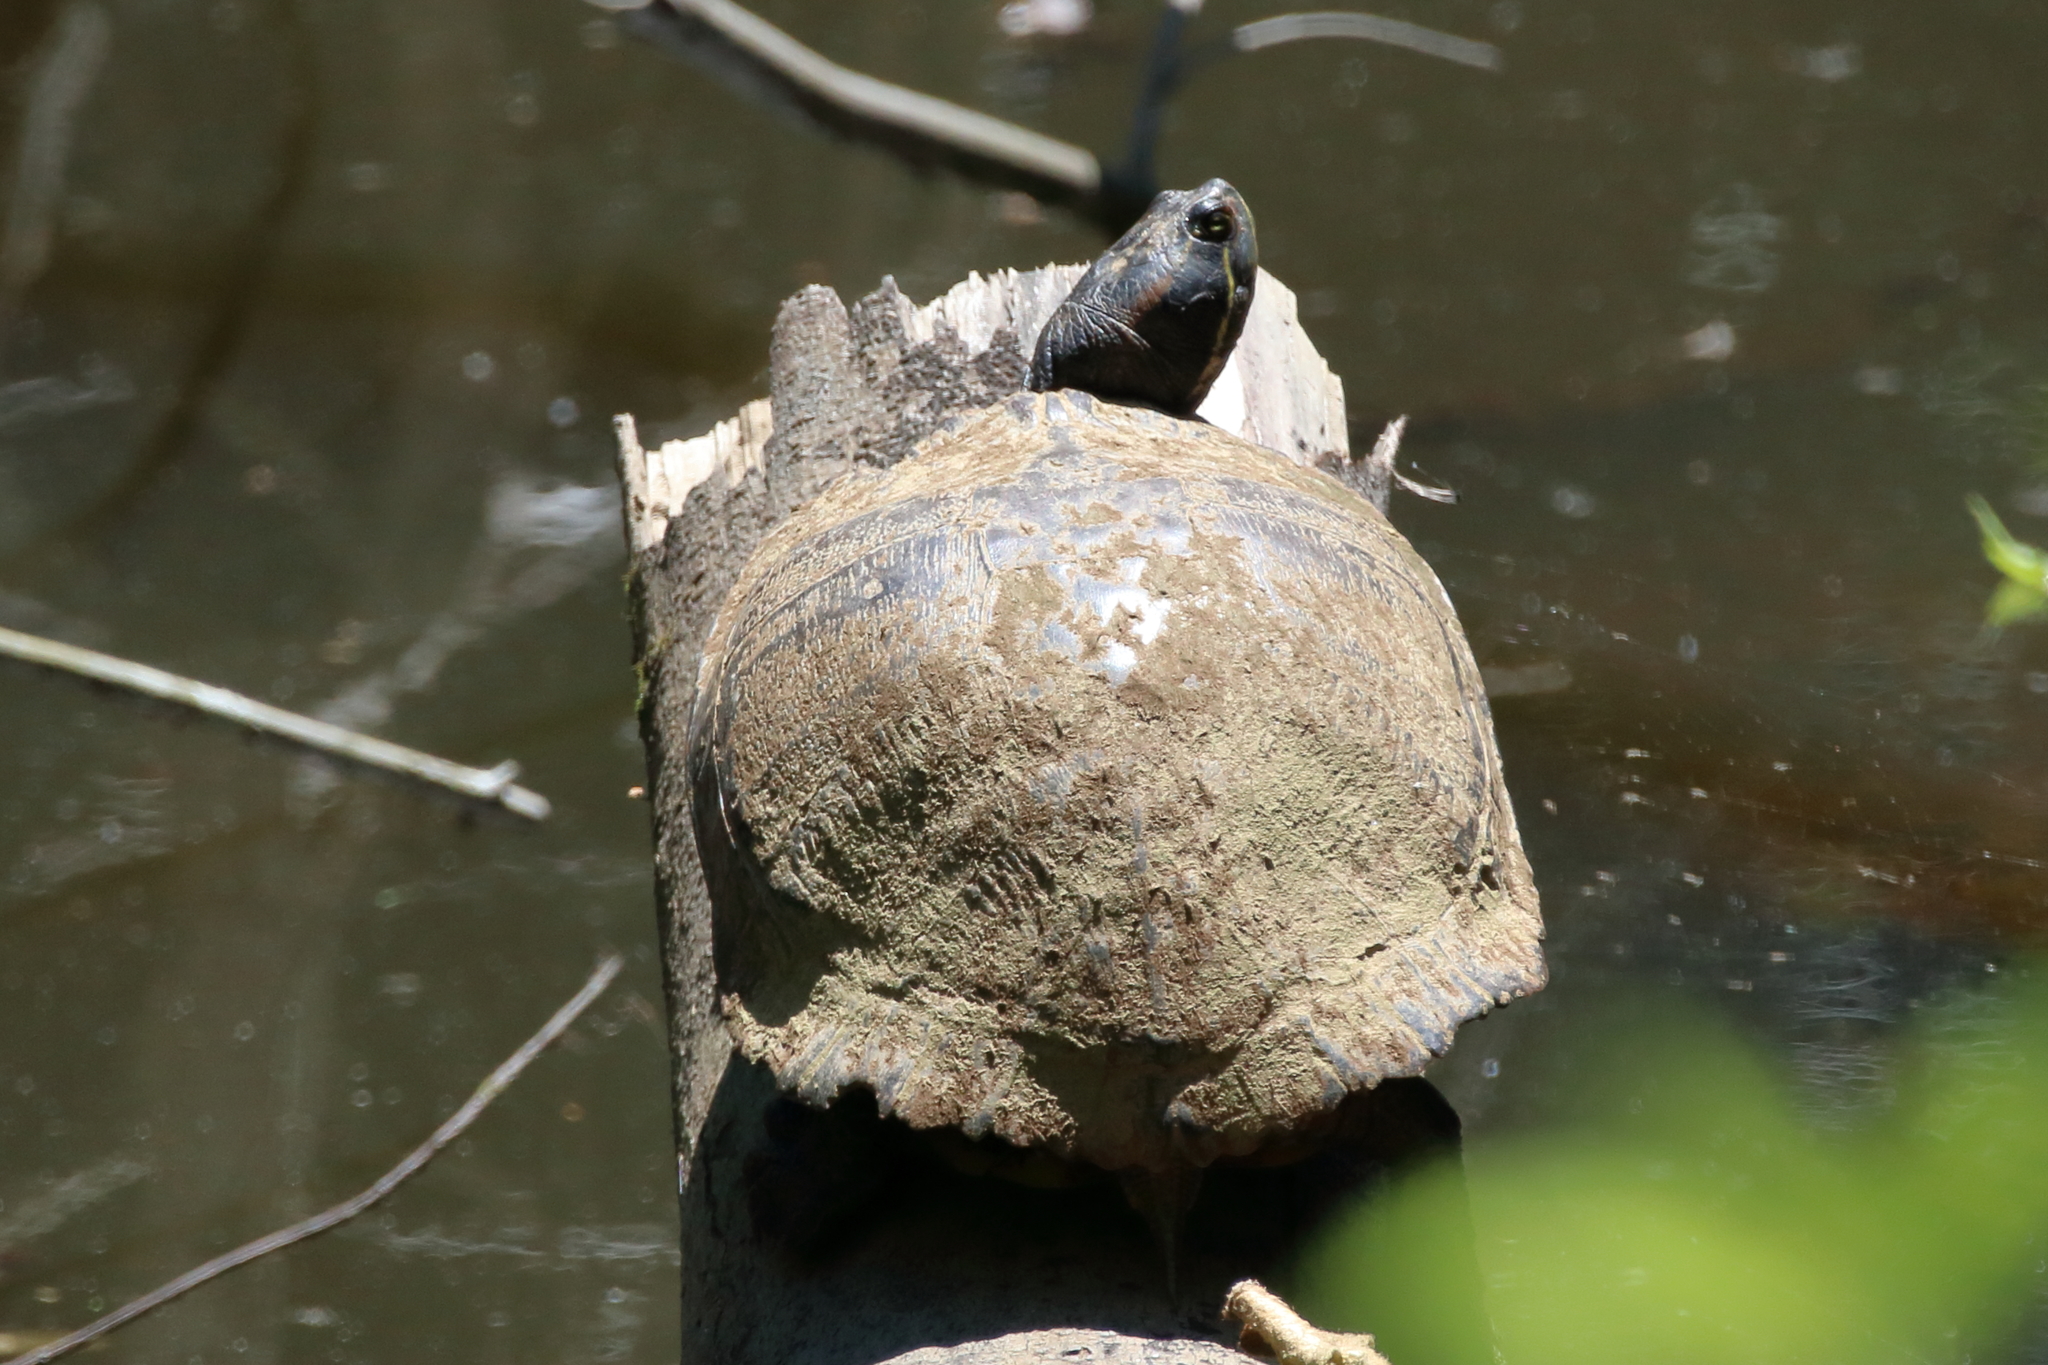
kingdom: Animalia
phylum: Chordata
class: Testudines
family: Emydidae
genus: Trachemys
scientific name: Trachemys scripta
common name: Slider
